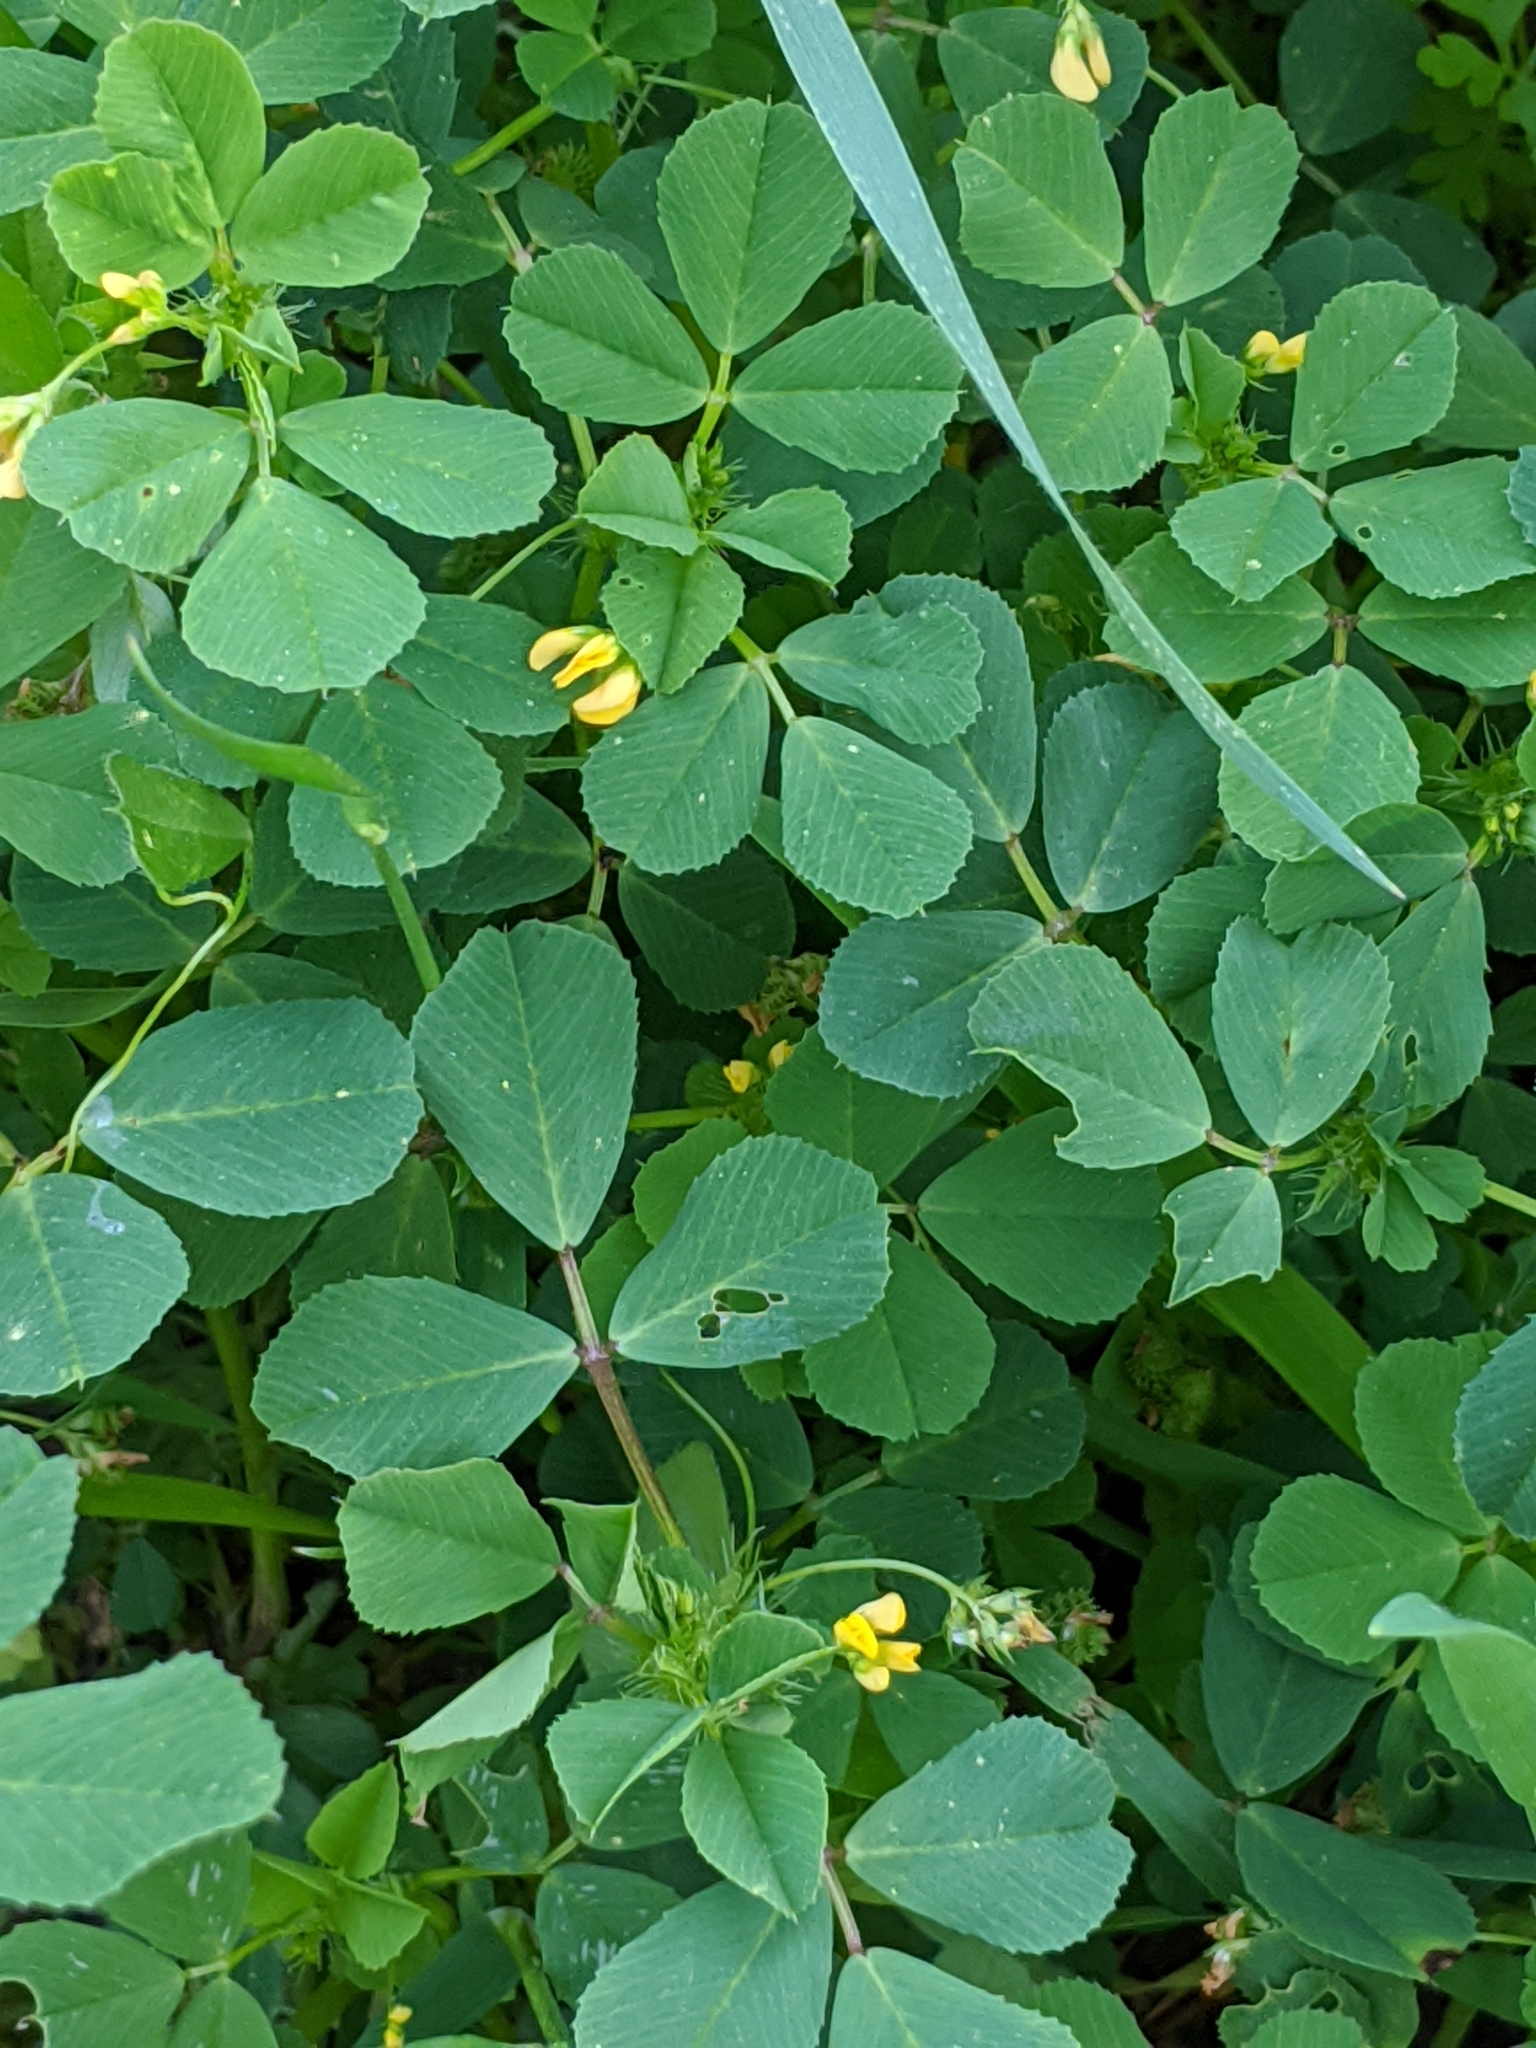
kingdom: Plantae
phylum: Tracheophyta
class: Magnoliopsida
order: Fabales
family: Fabaceae
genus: Medicago
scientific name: Medicago polymorpha
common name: Burclover
